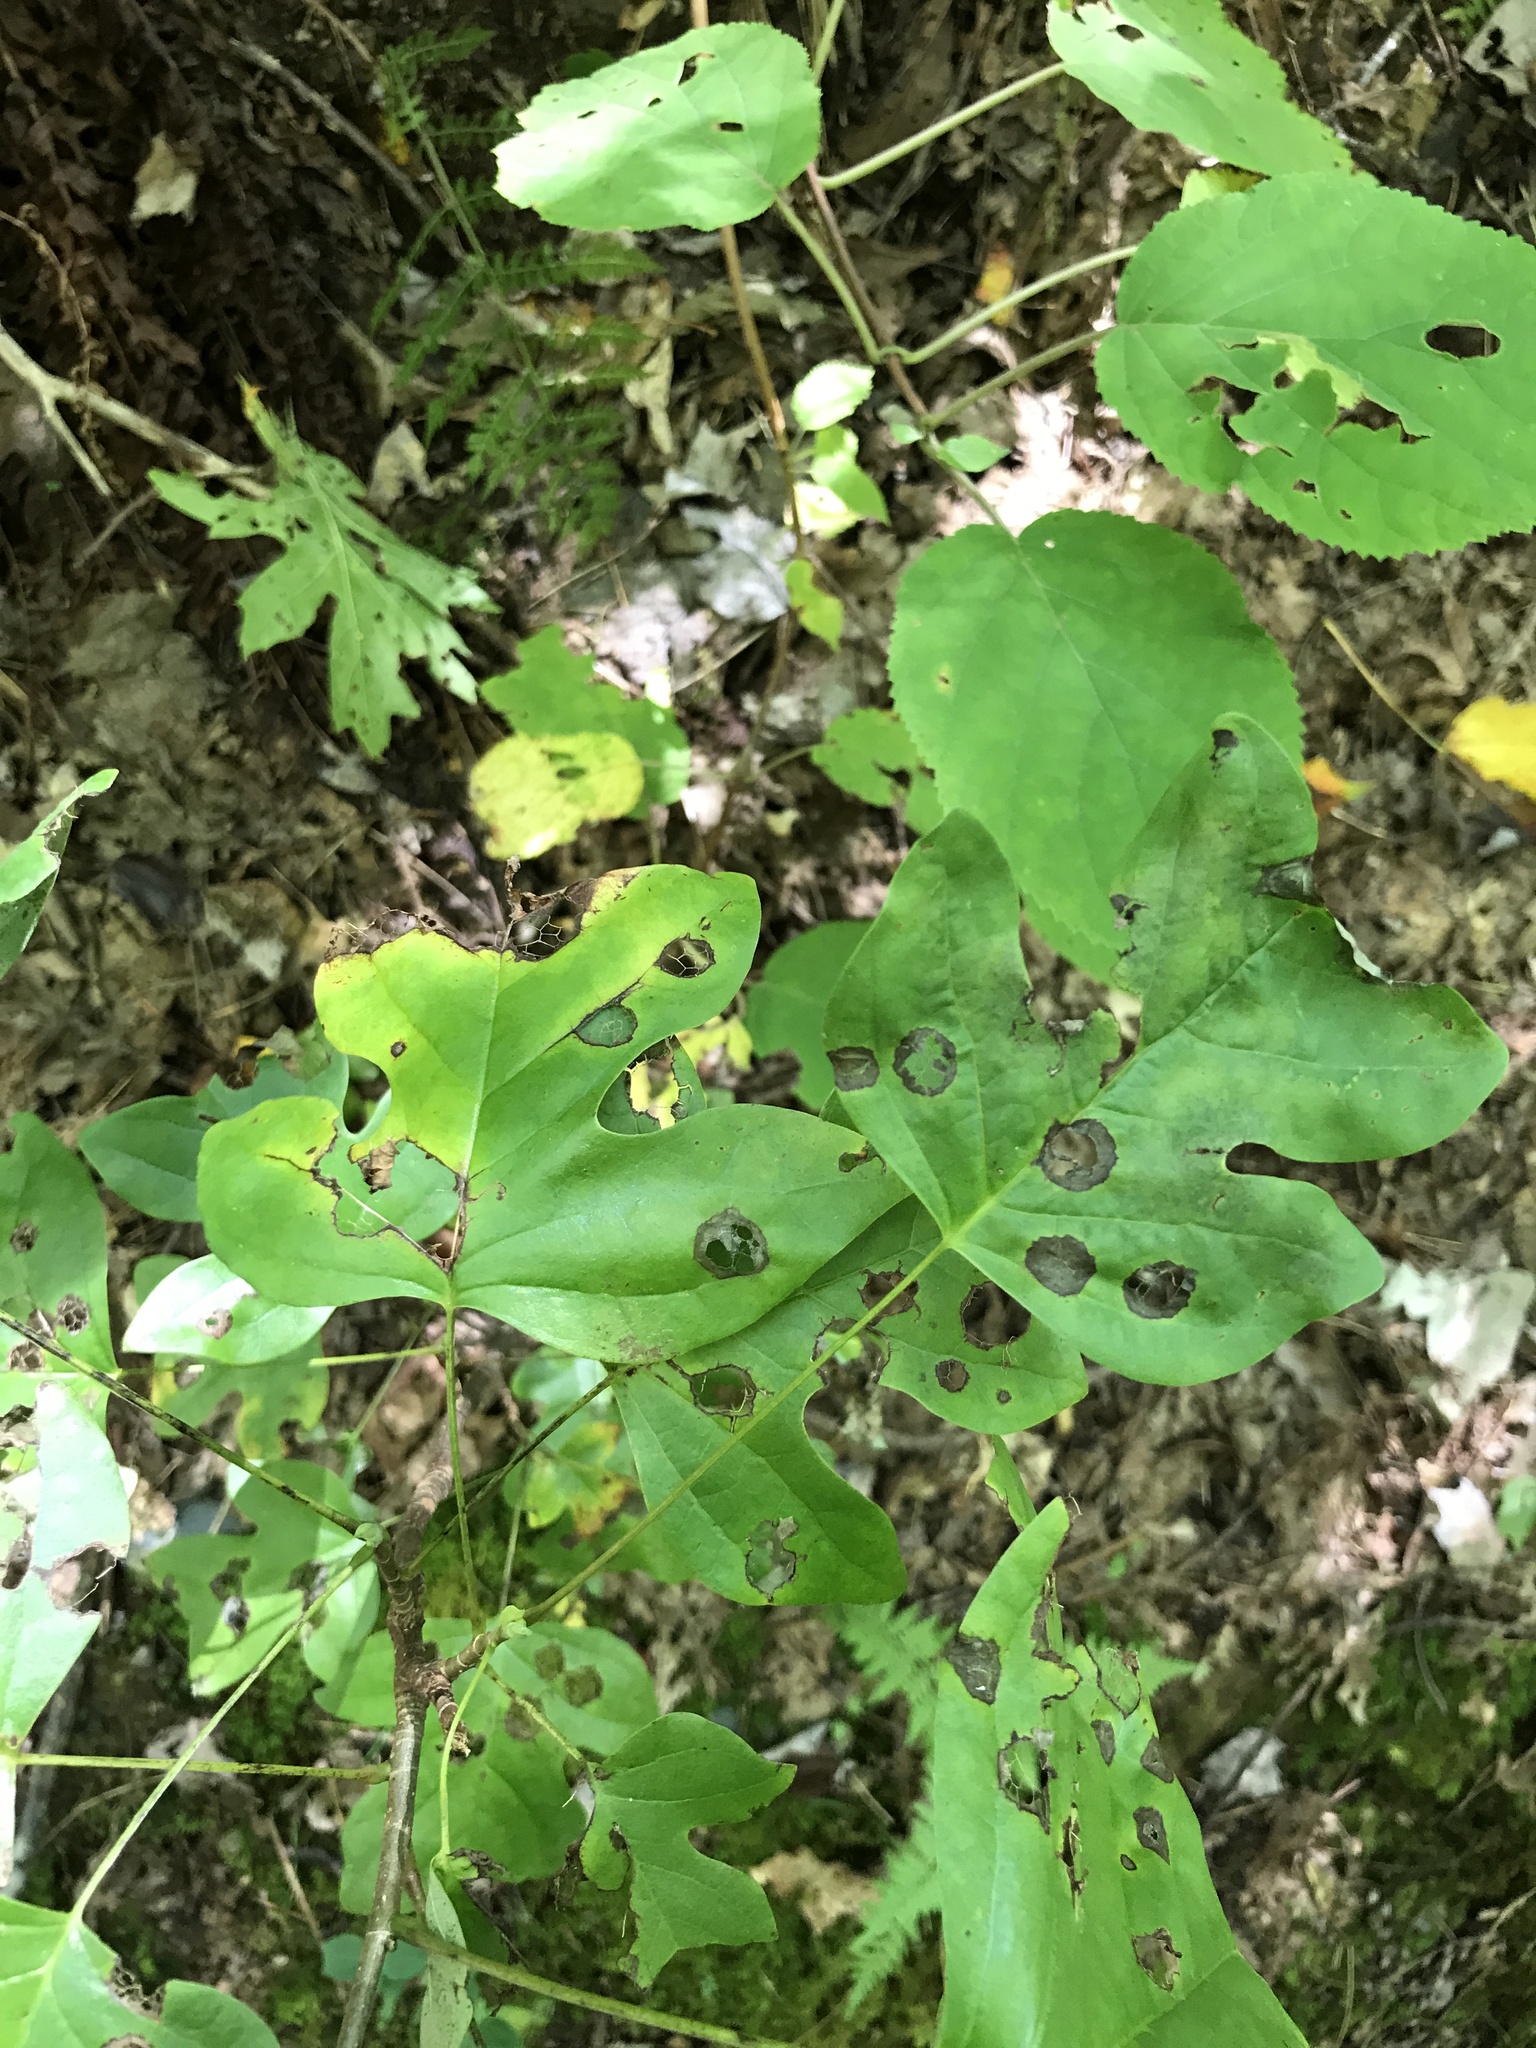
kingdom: Plantae
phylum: Tracheophyta
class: Magnoliopsida
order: Magnoliales
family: Magnoliaceae
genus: Liriodendron
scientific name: Liriodendron tulipifera
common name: Tulip tree
